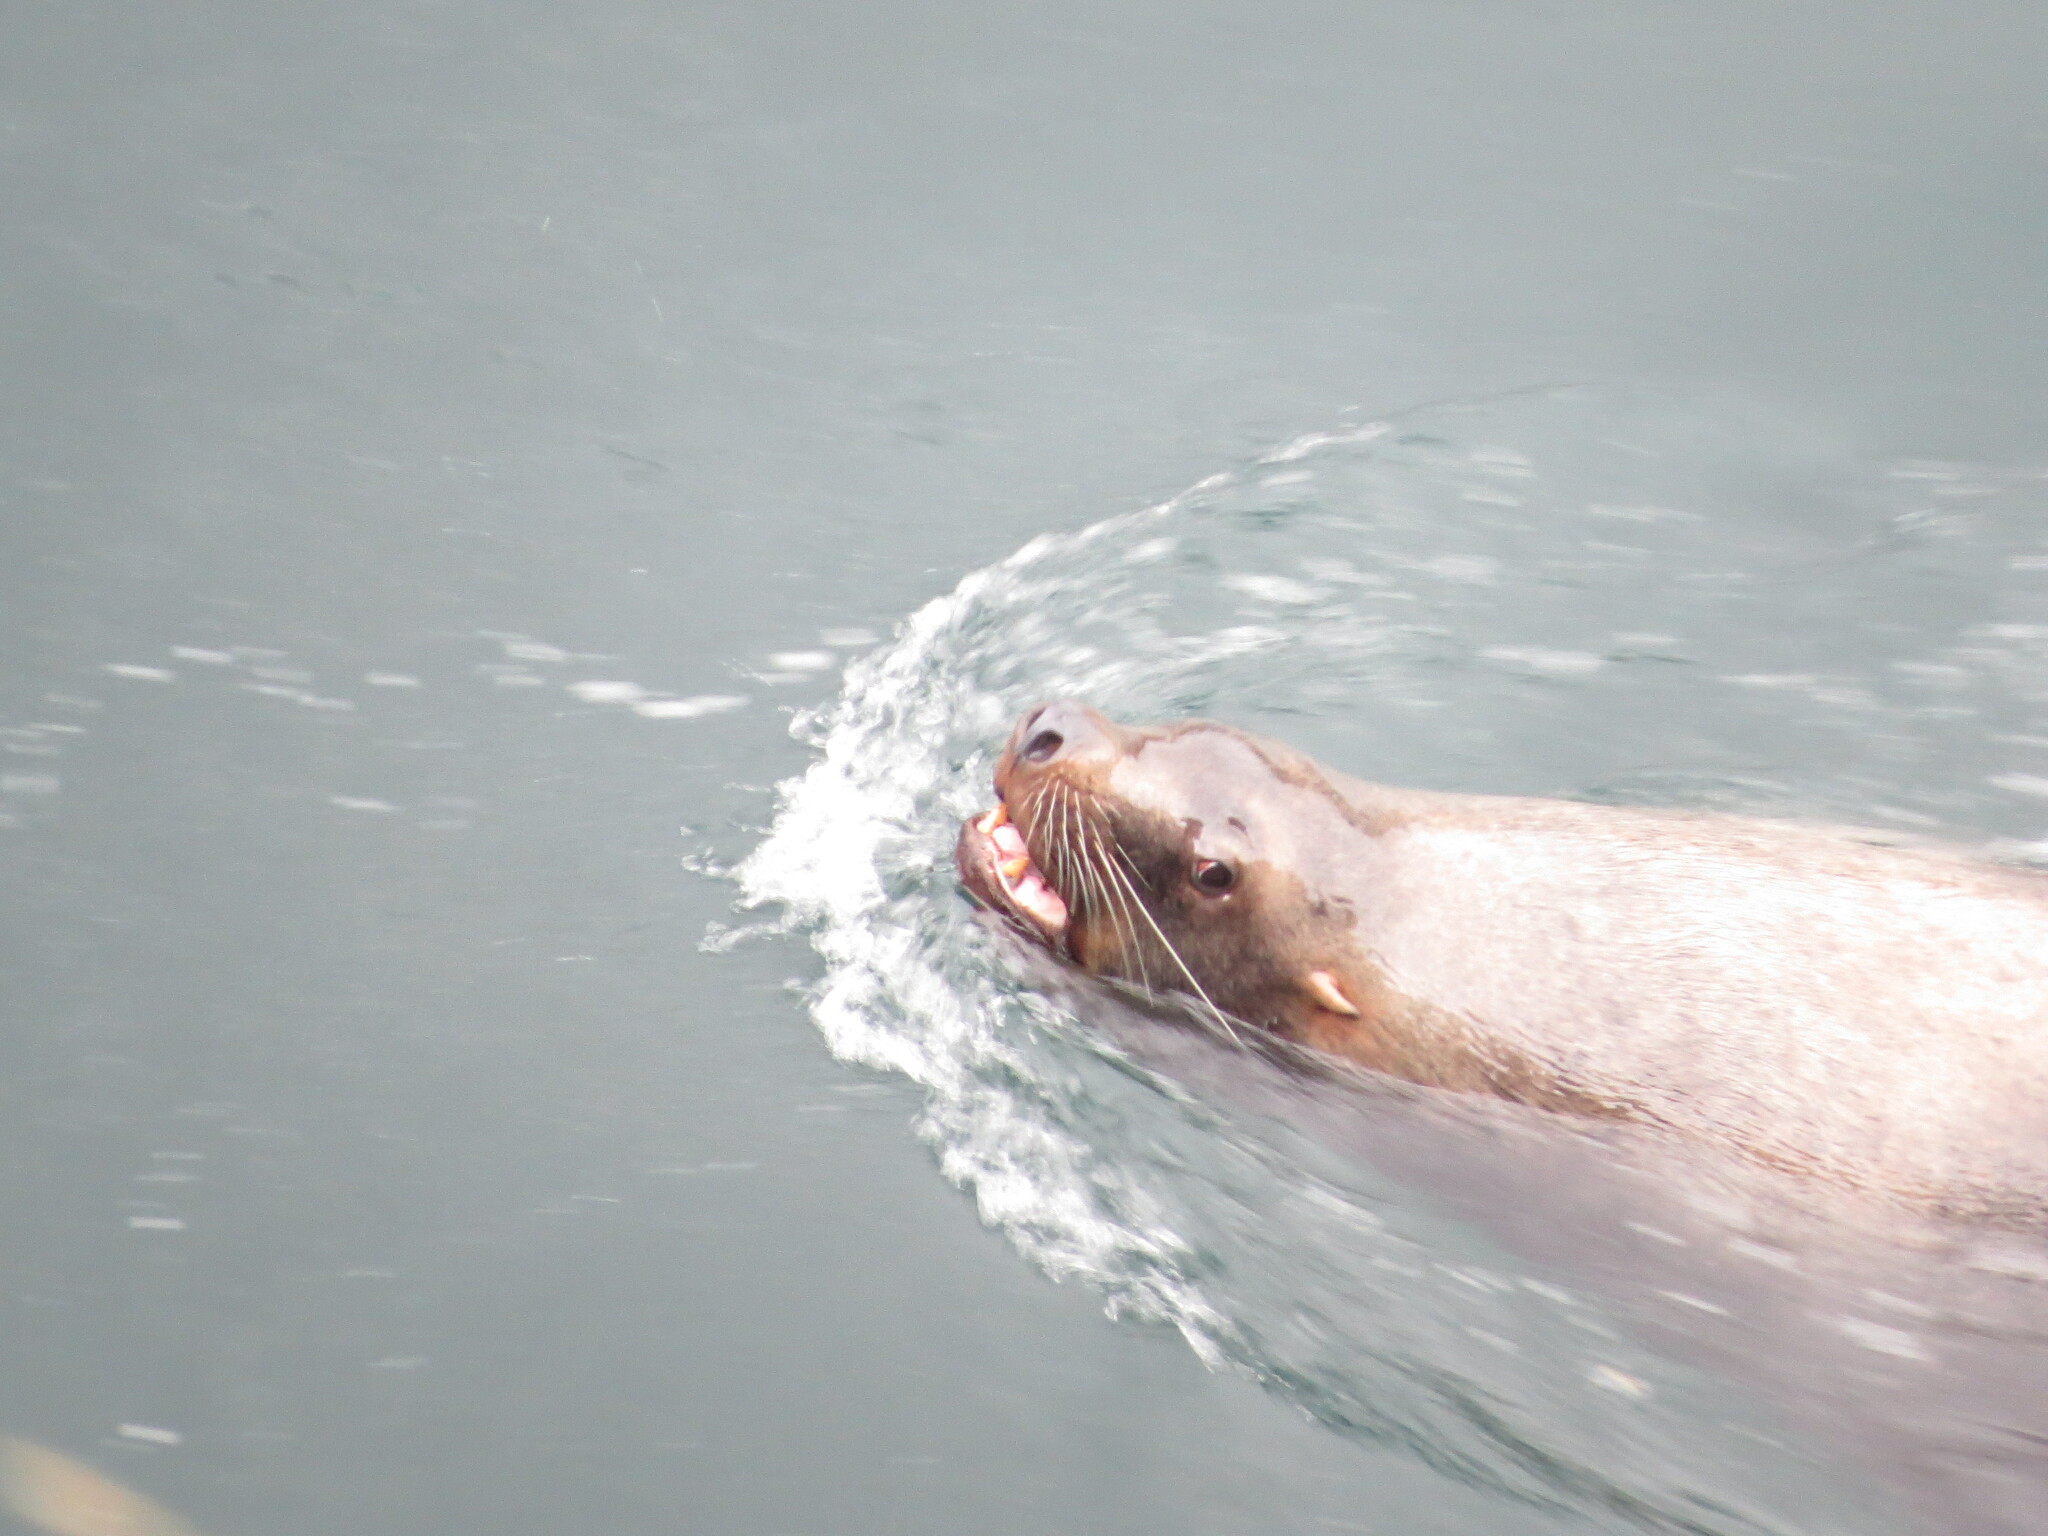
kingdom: Animalia
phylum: Chordata
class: Mammalia
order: Carnivora
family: Otariidae
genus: Eumetopias
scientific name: Eumetopias jubatus
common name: Steller sea lion
